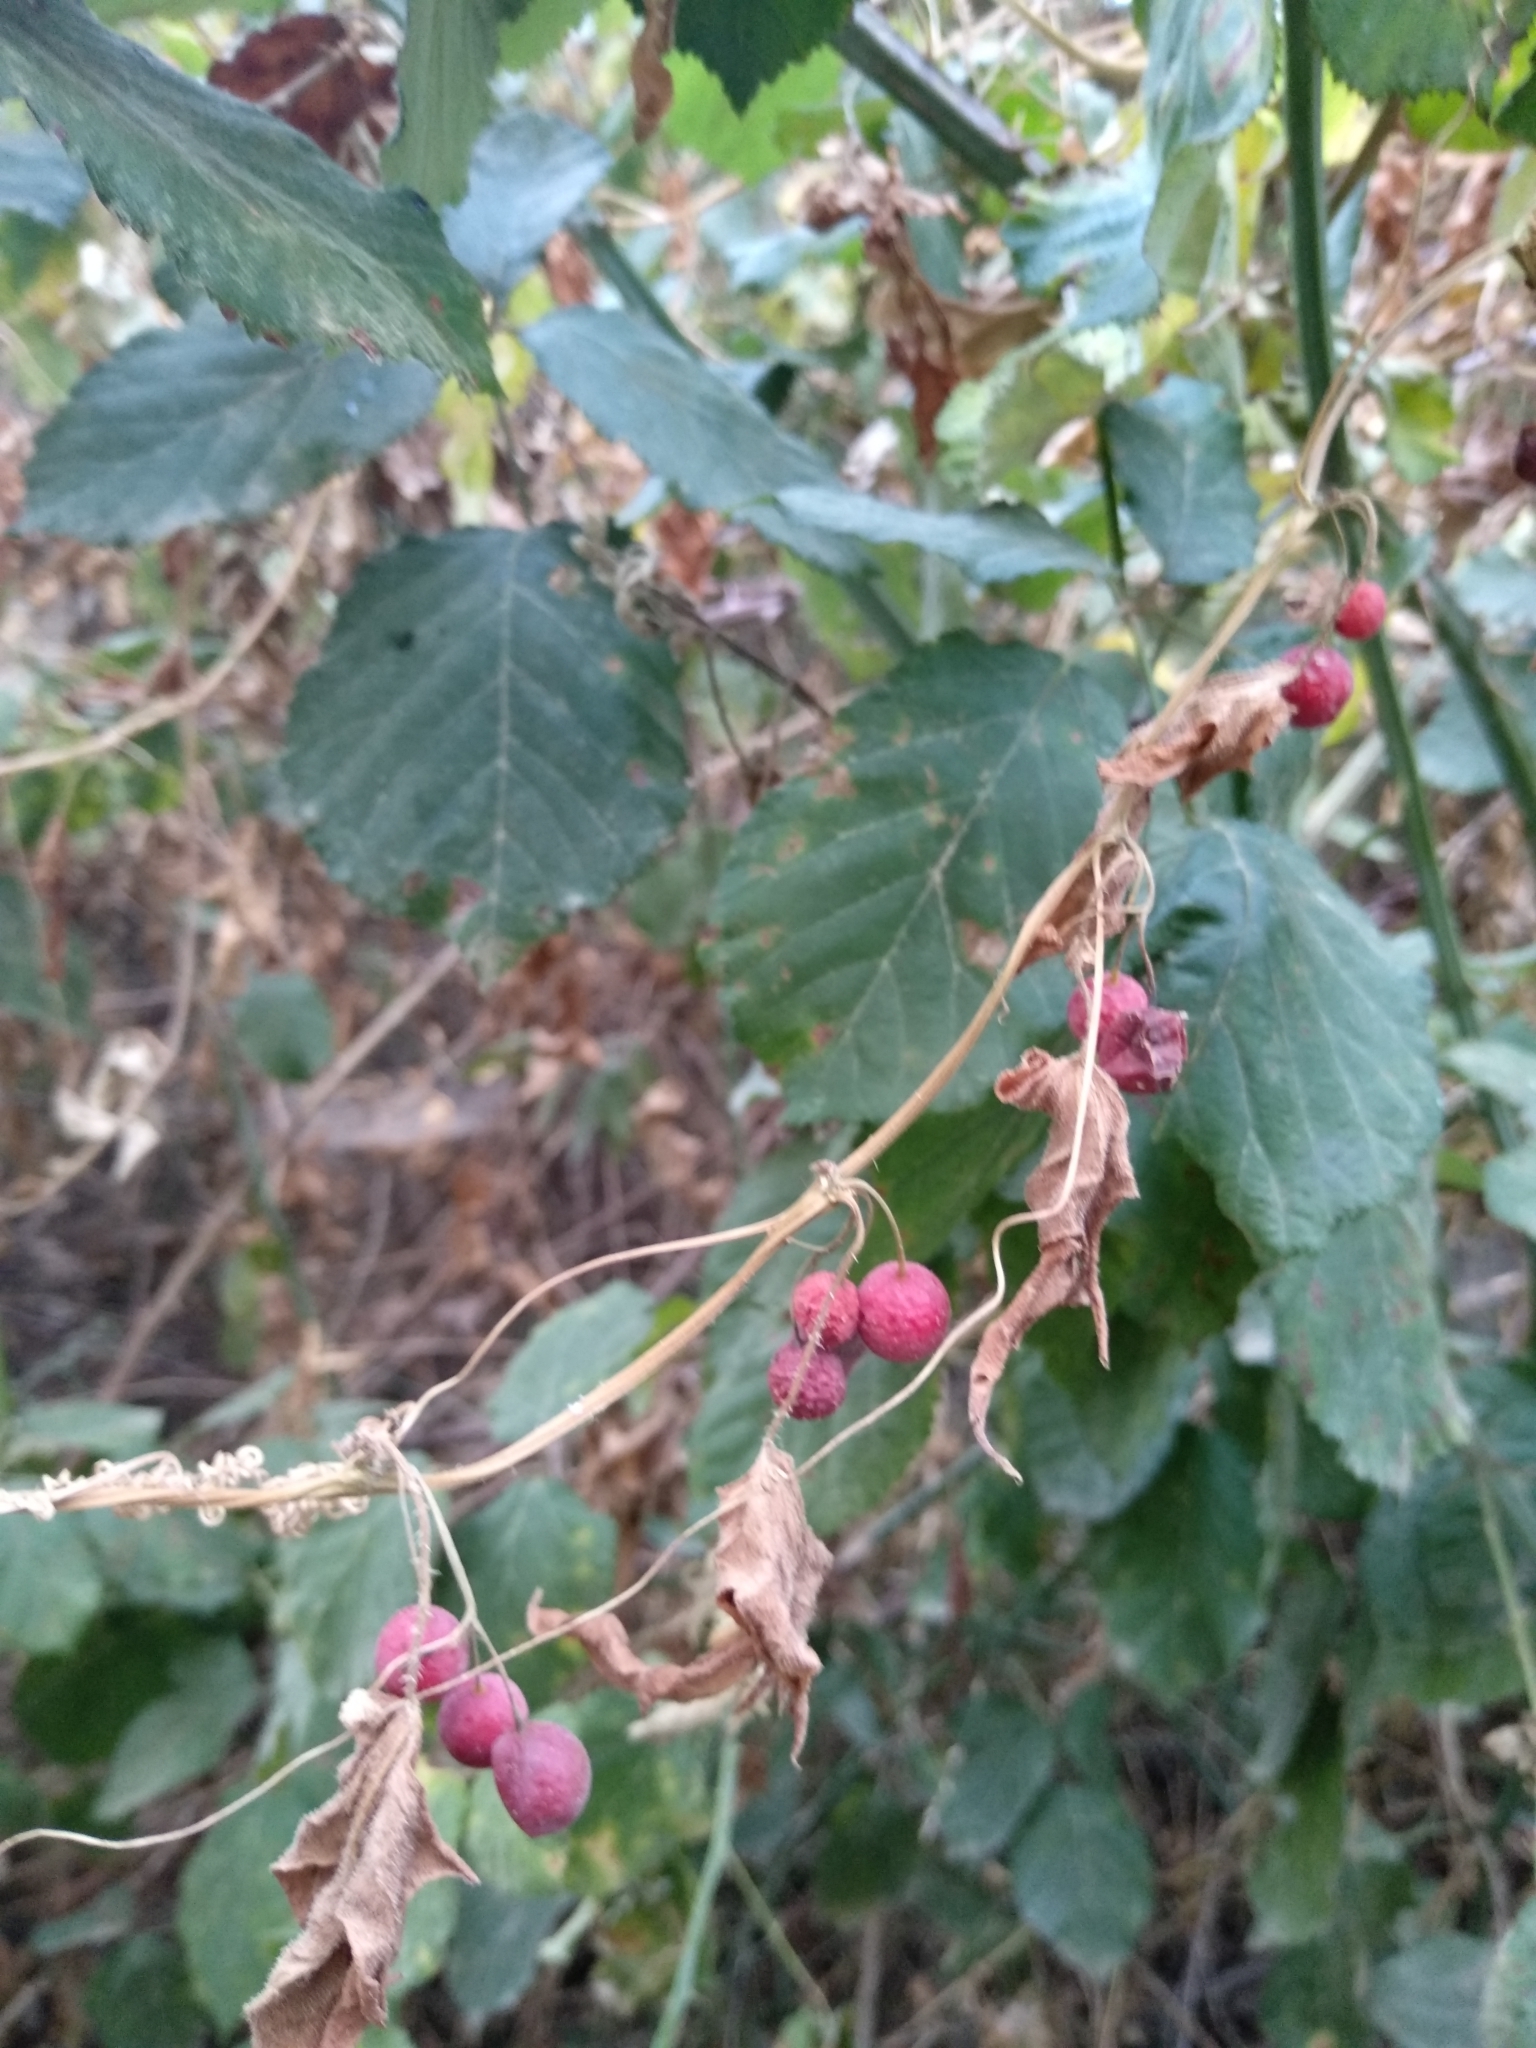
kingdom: Plantae
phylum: Tracheophyta
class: Magnoliopsida
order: Cucurbitales
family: Cucurbitaceae
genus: Bryonia
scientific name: Bryonia dioica
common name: White bryony
